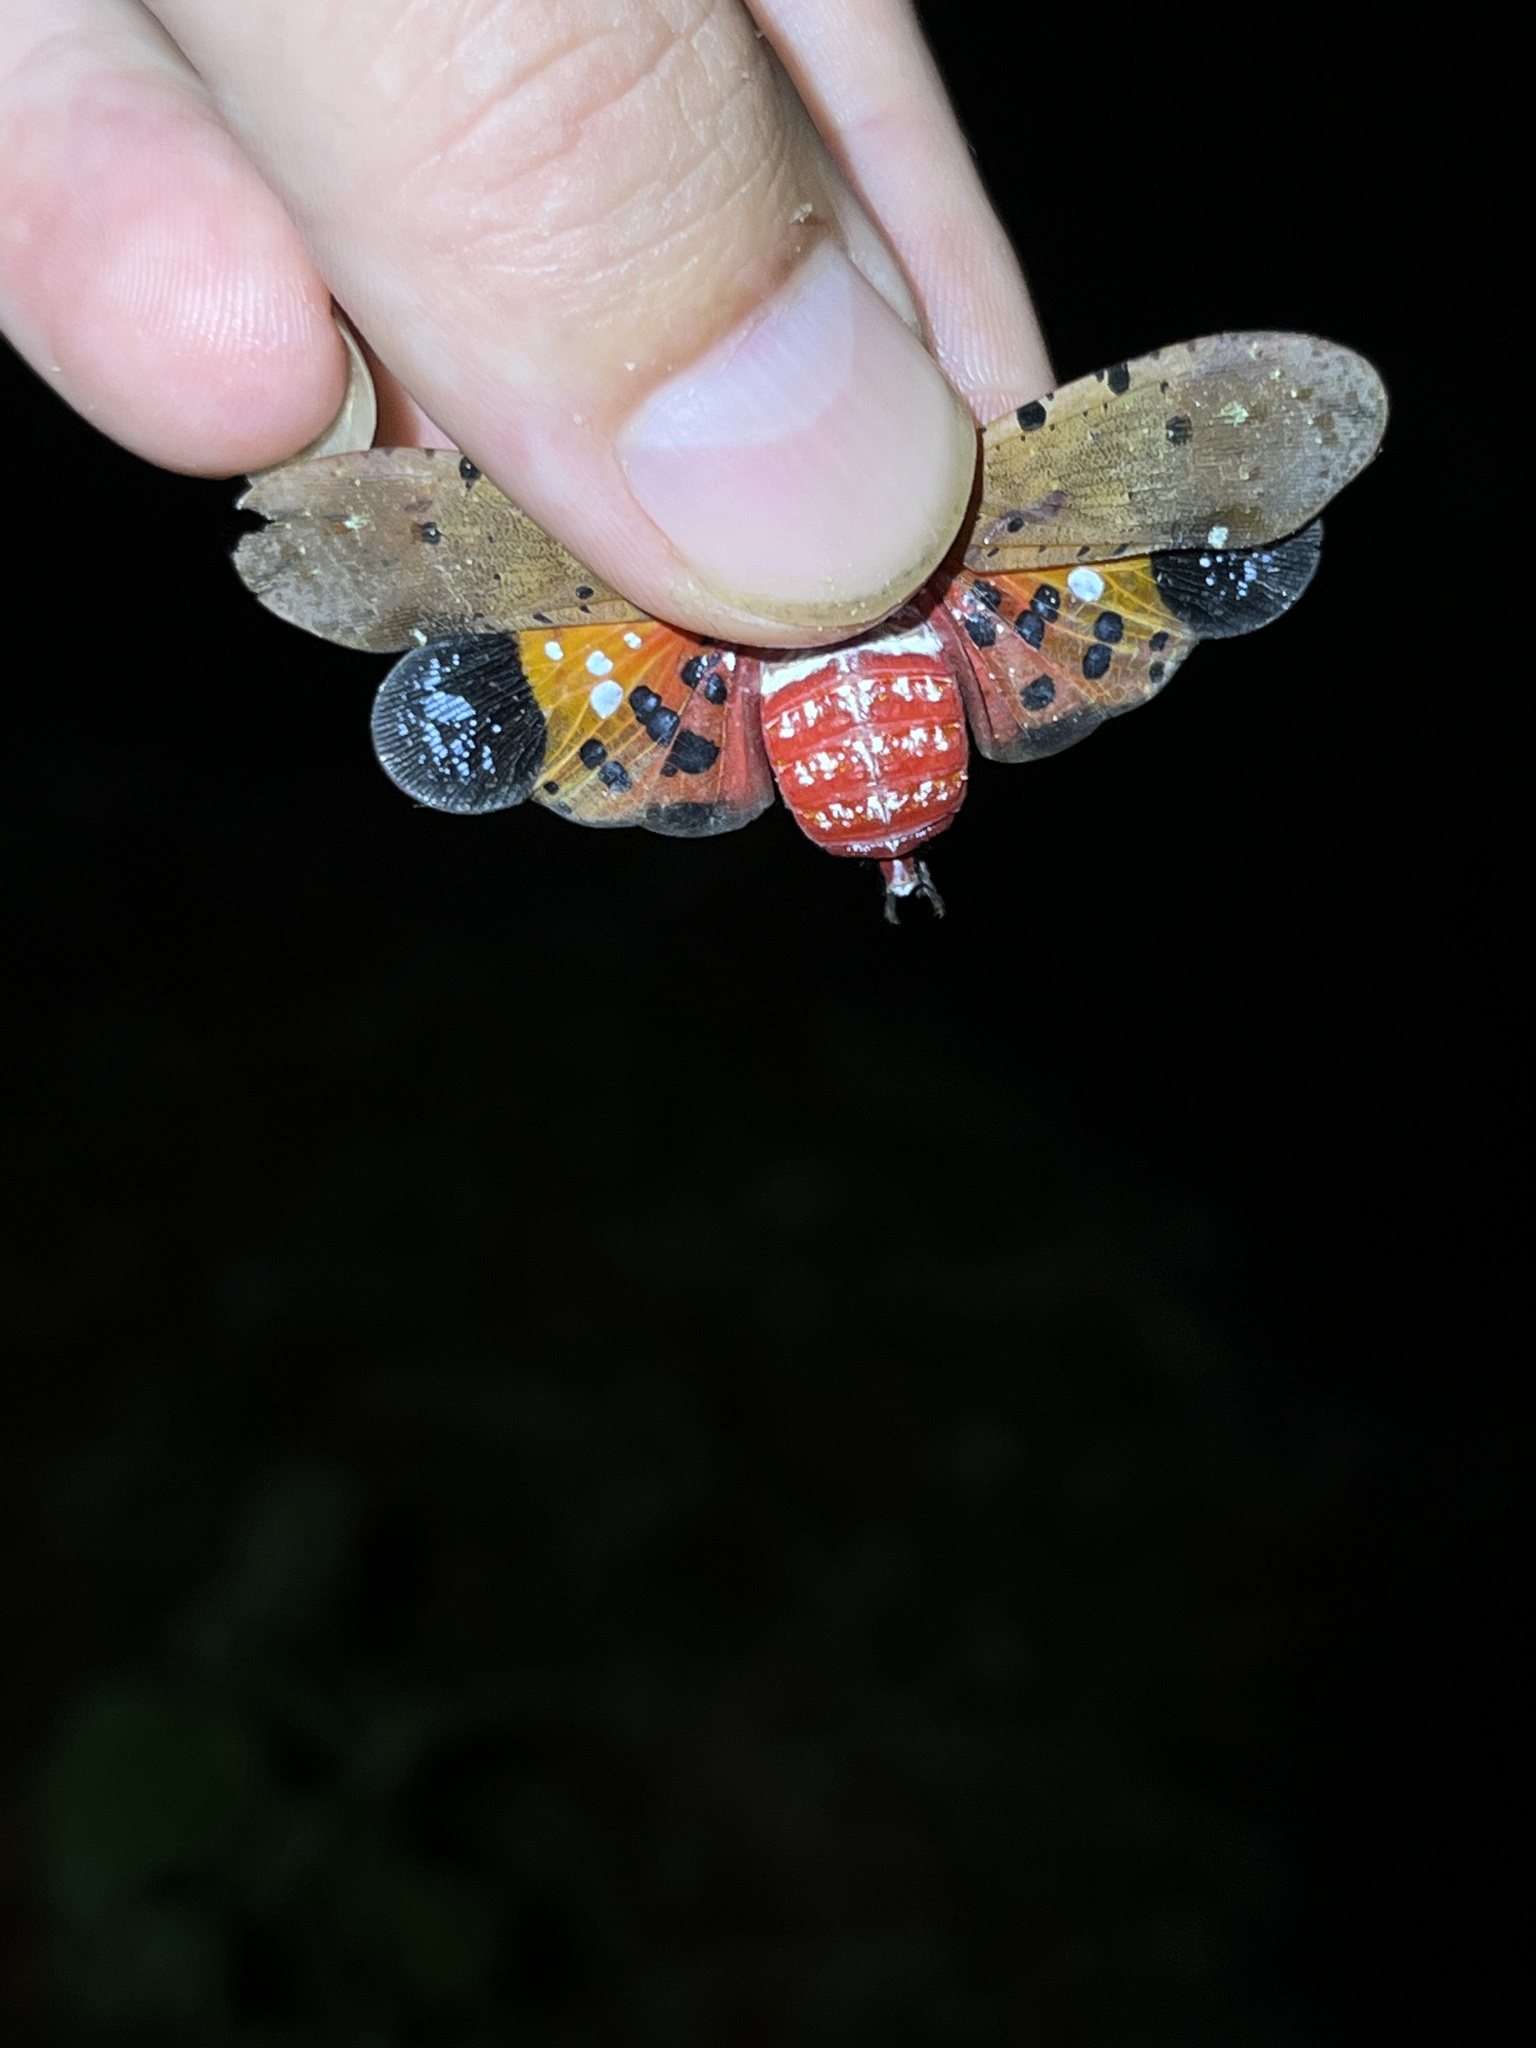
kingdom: Animalia
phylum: Arthropoda
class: Insecta
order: Hemiptera
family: Fulgoridae
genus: Penthicodes
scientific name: Penthicodes atomaria
